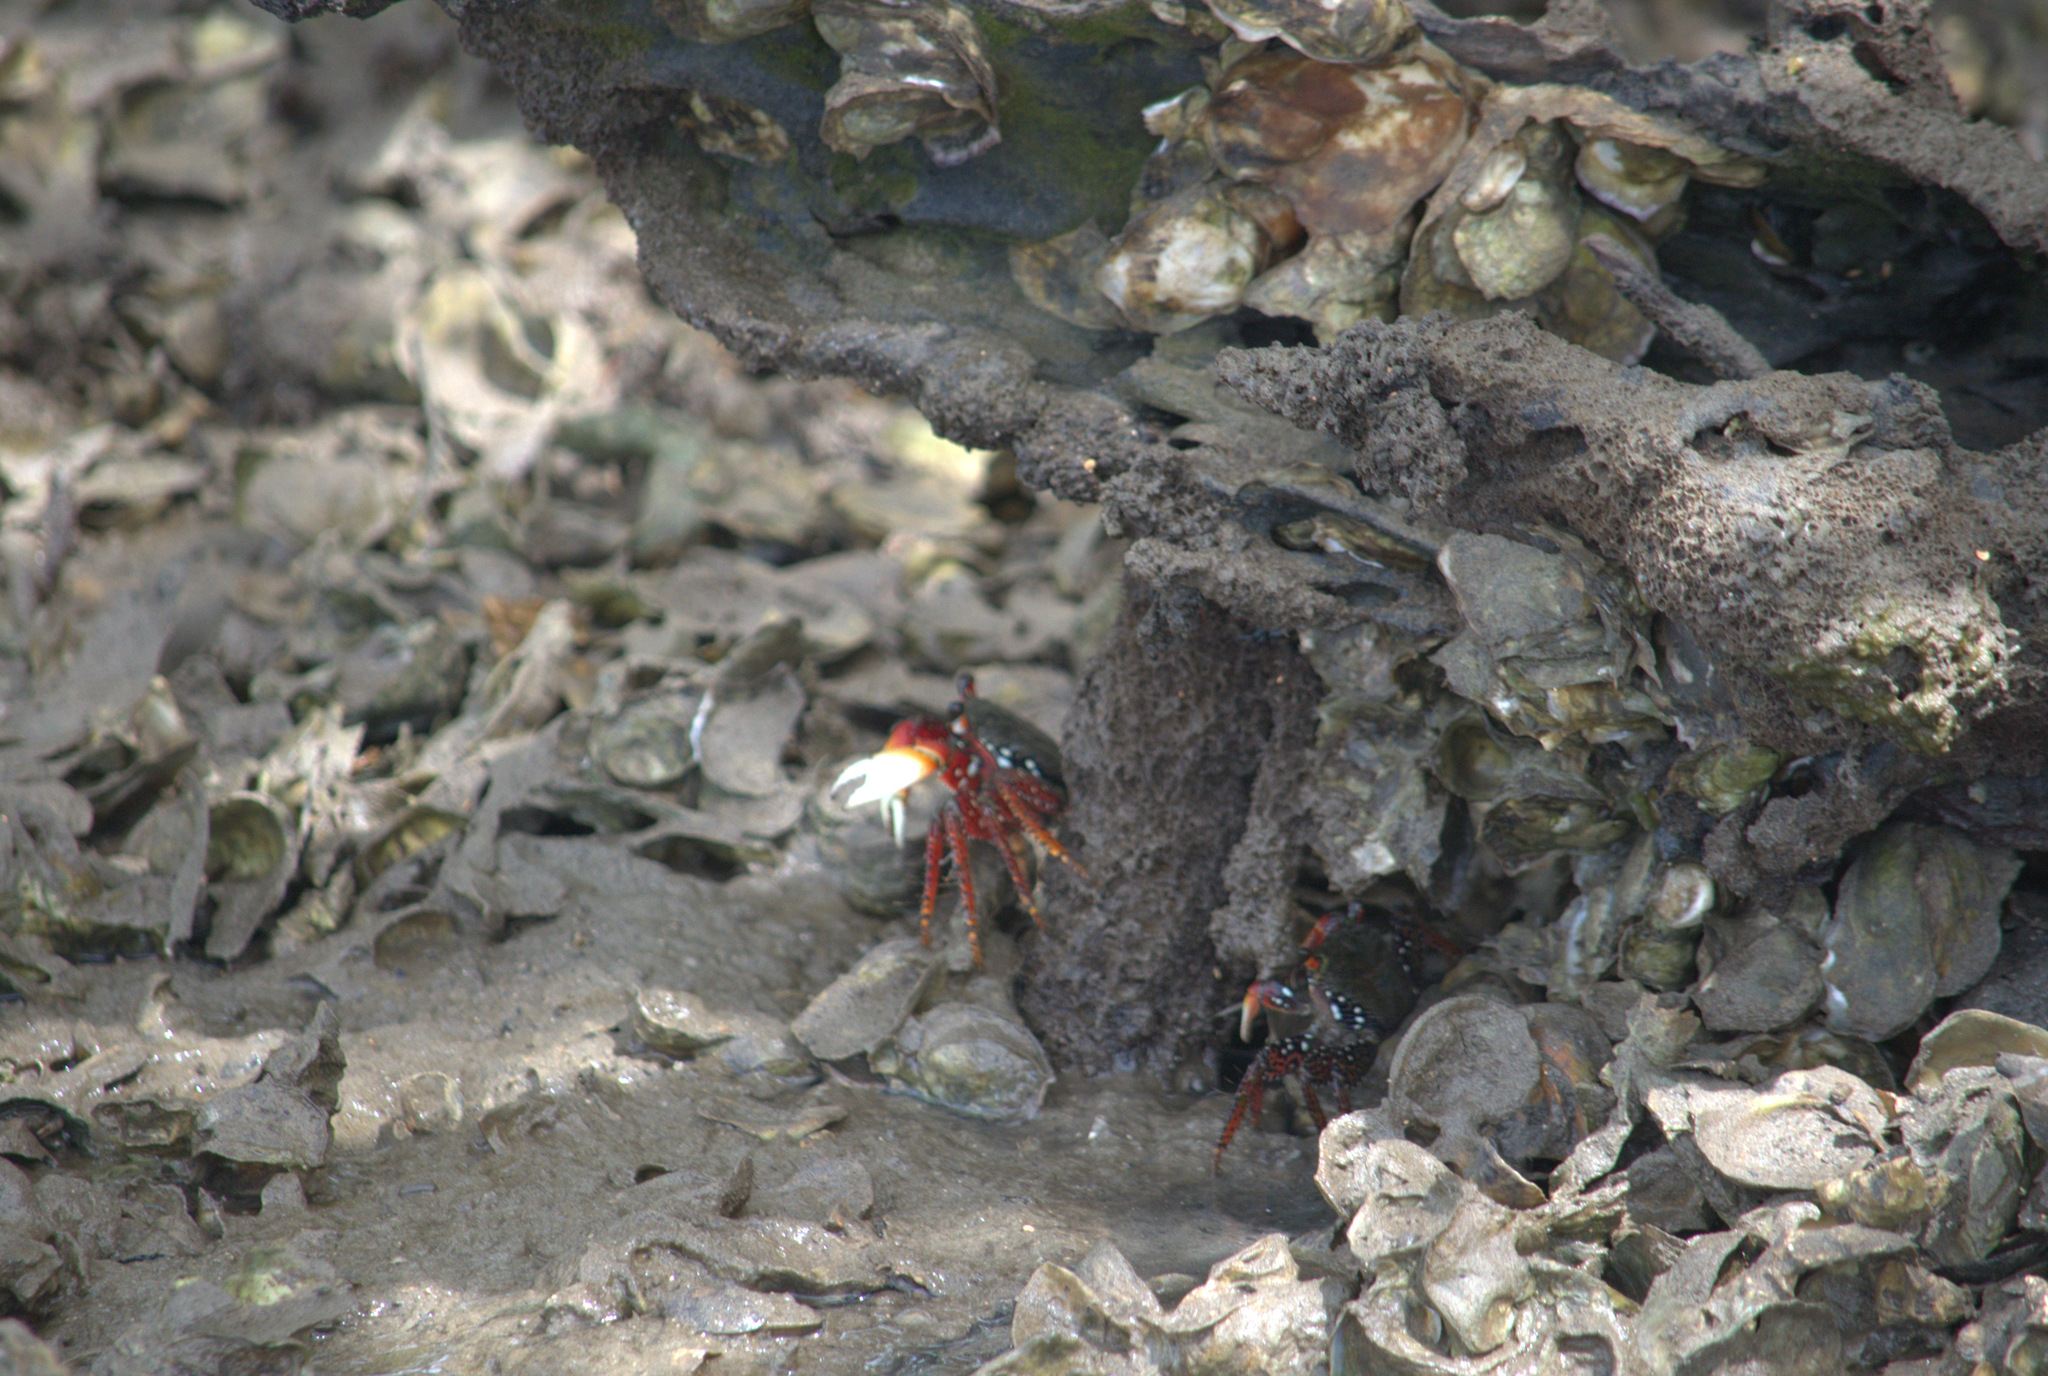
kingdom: Animalia
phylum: Arthropoda
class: Malacostraca
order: Decapoda
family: Grapsidae
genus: Goniopsis
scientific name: Goniopsis cruentata
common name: Mangrove crab
